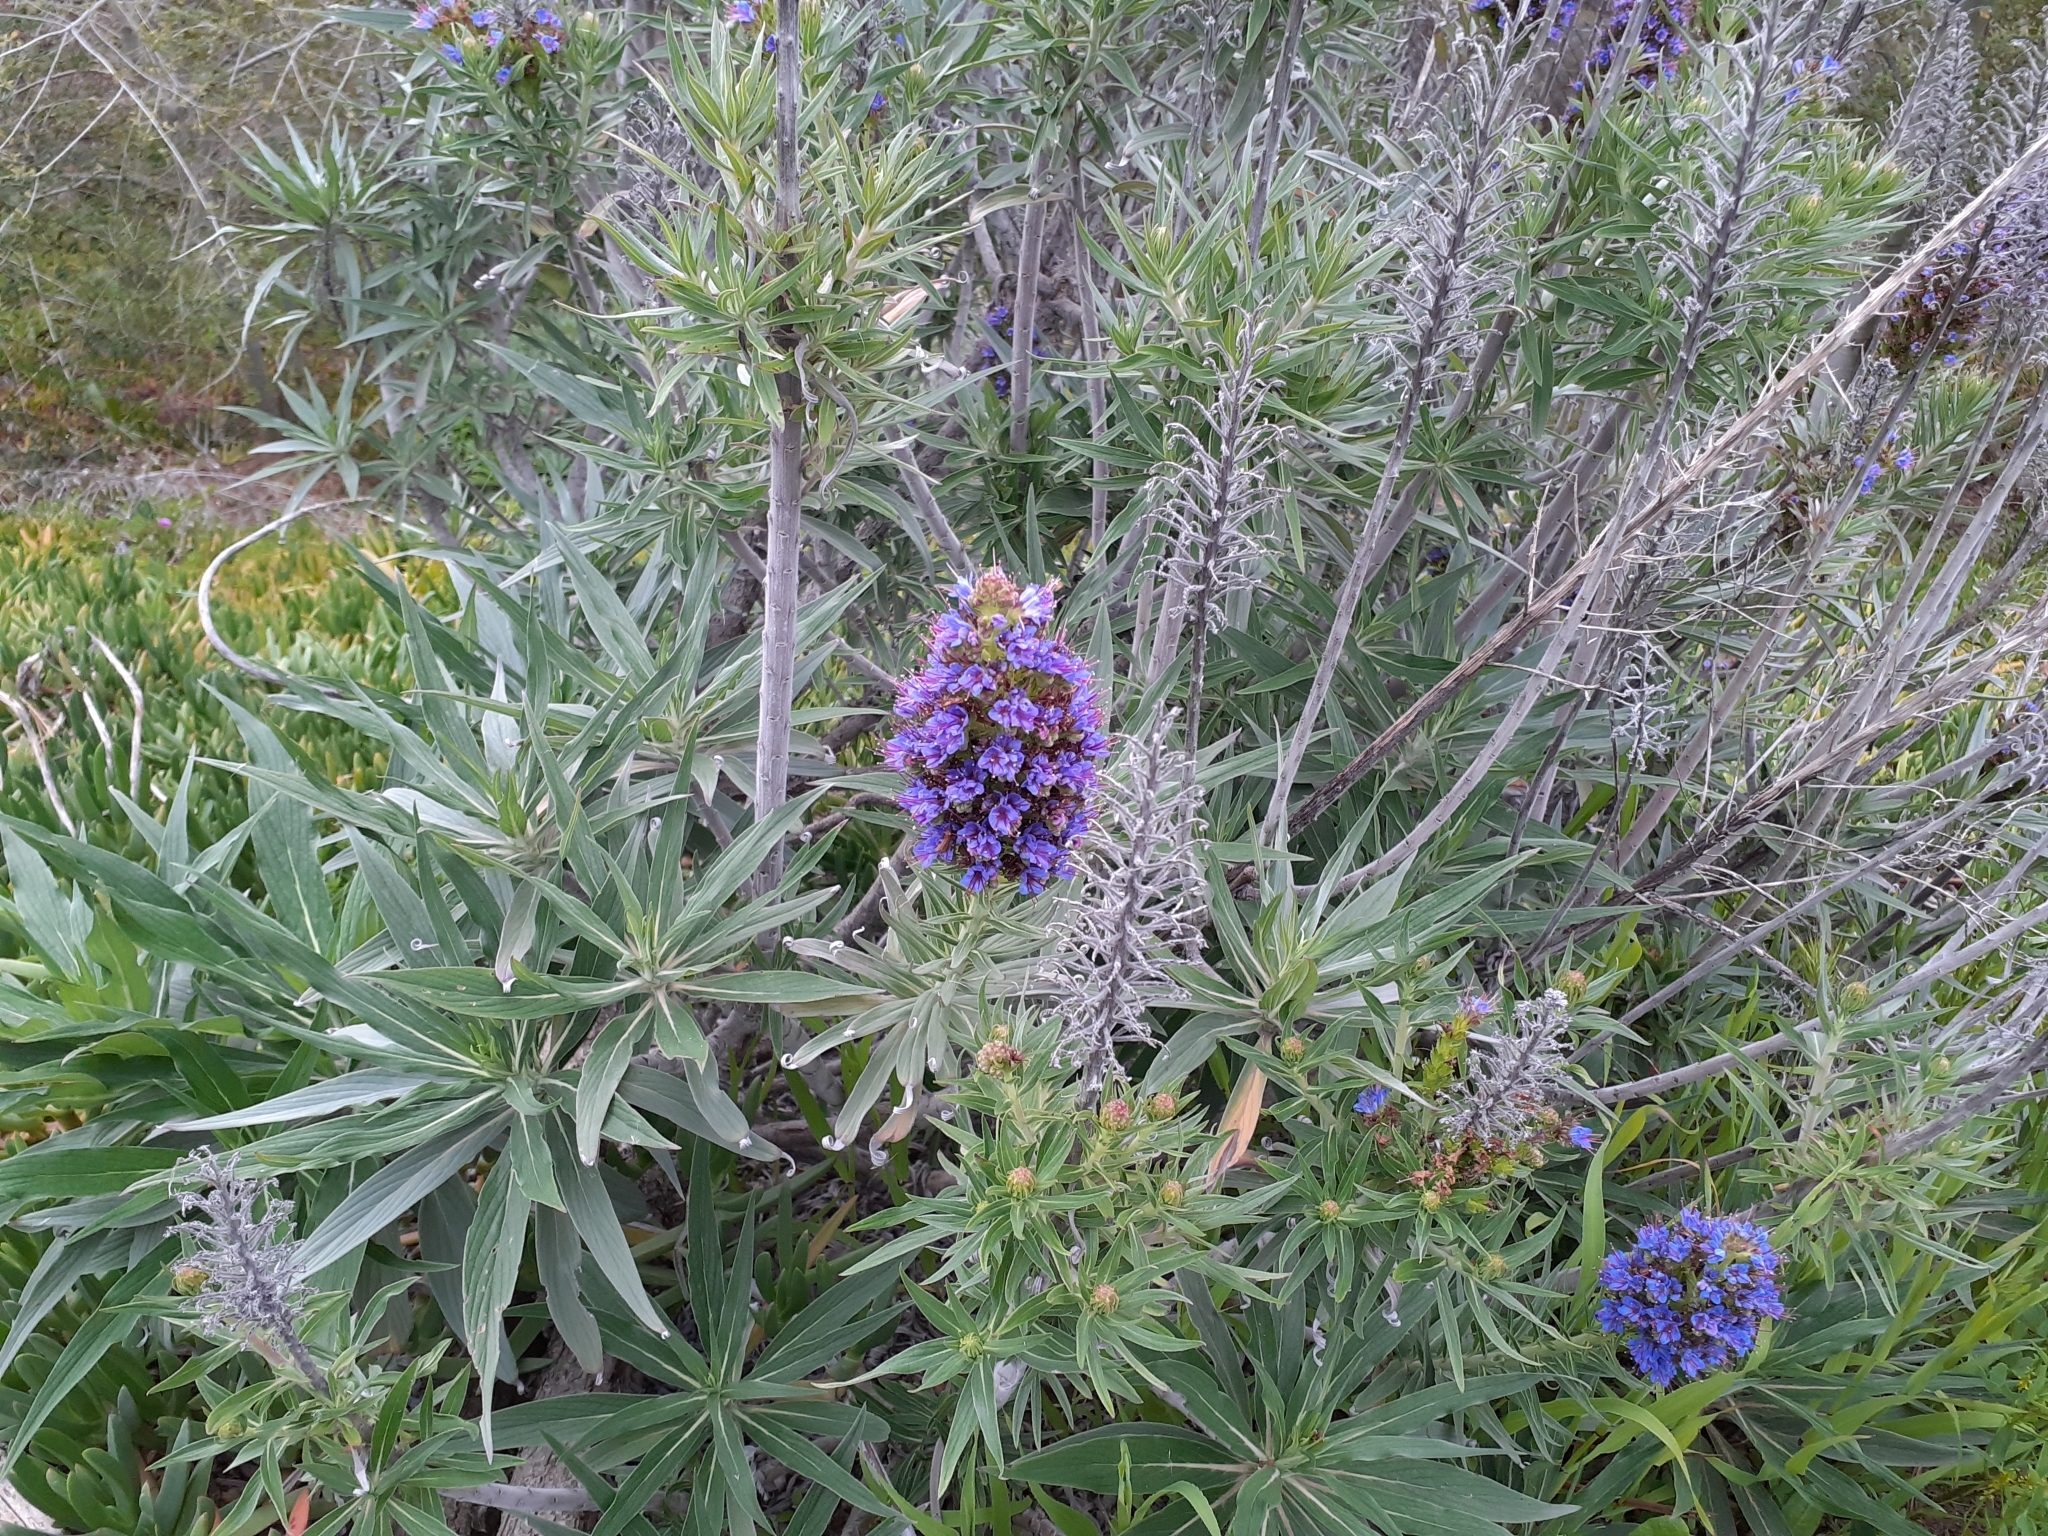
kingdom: Plantae
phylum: Tracheophyta
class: Magnoliopsida
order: Boraginales
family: Boraginaceae
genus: Echium
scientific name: Echium candicans
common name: Pride of madeira
